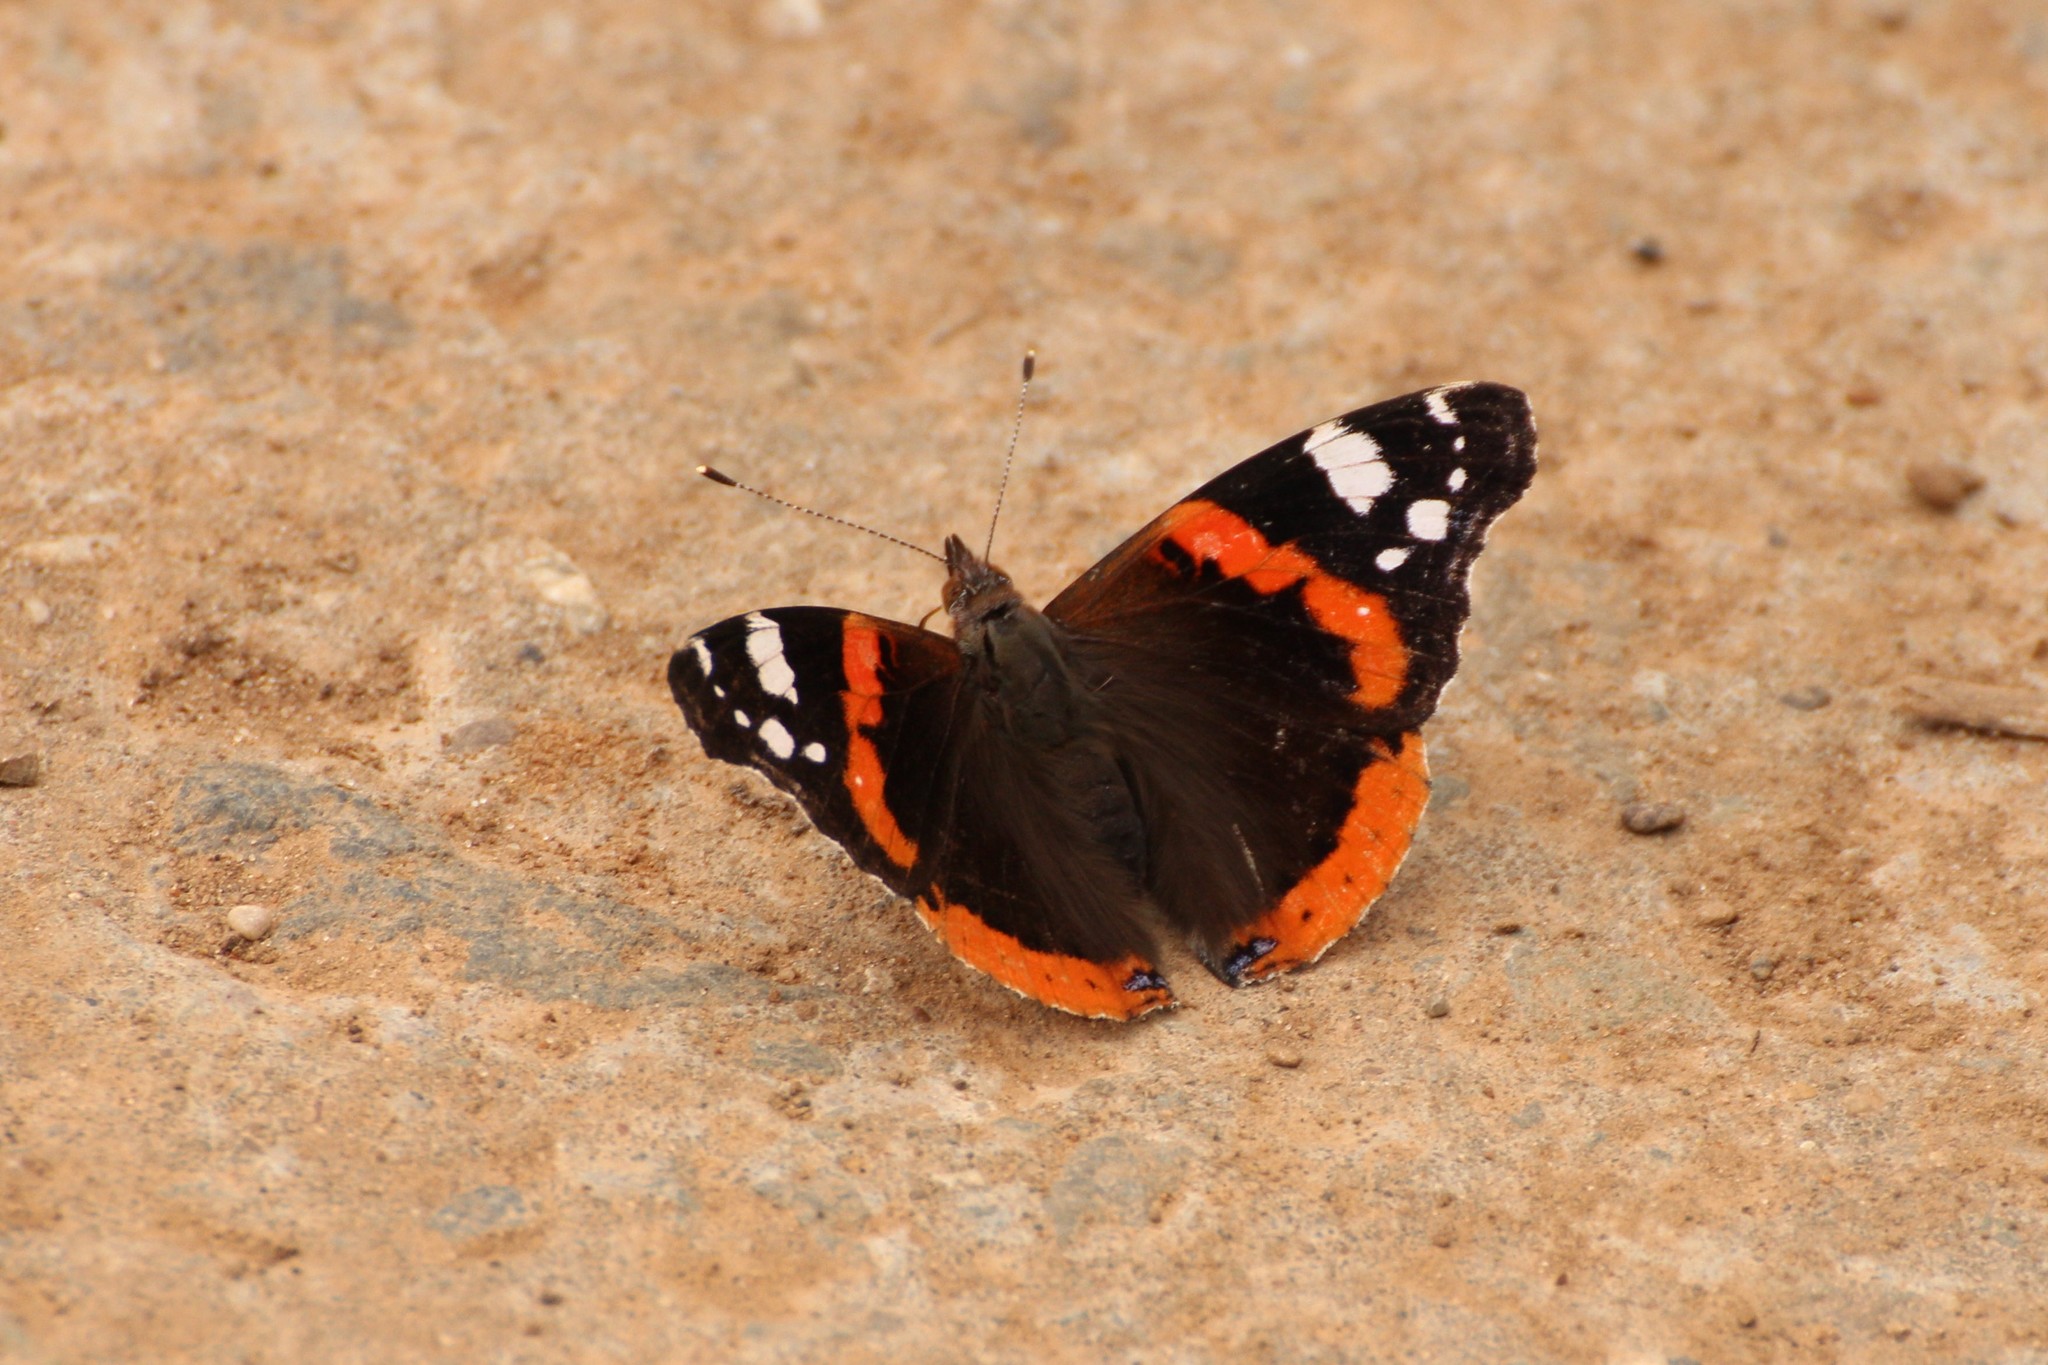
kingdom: Animalia
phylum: Arthropoda
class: Insecta
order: Lepidoptera
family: Nymphalidae
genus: Vanessa
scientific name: Vanessa atalanta
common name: Red admiral
